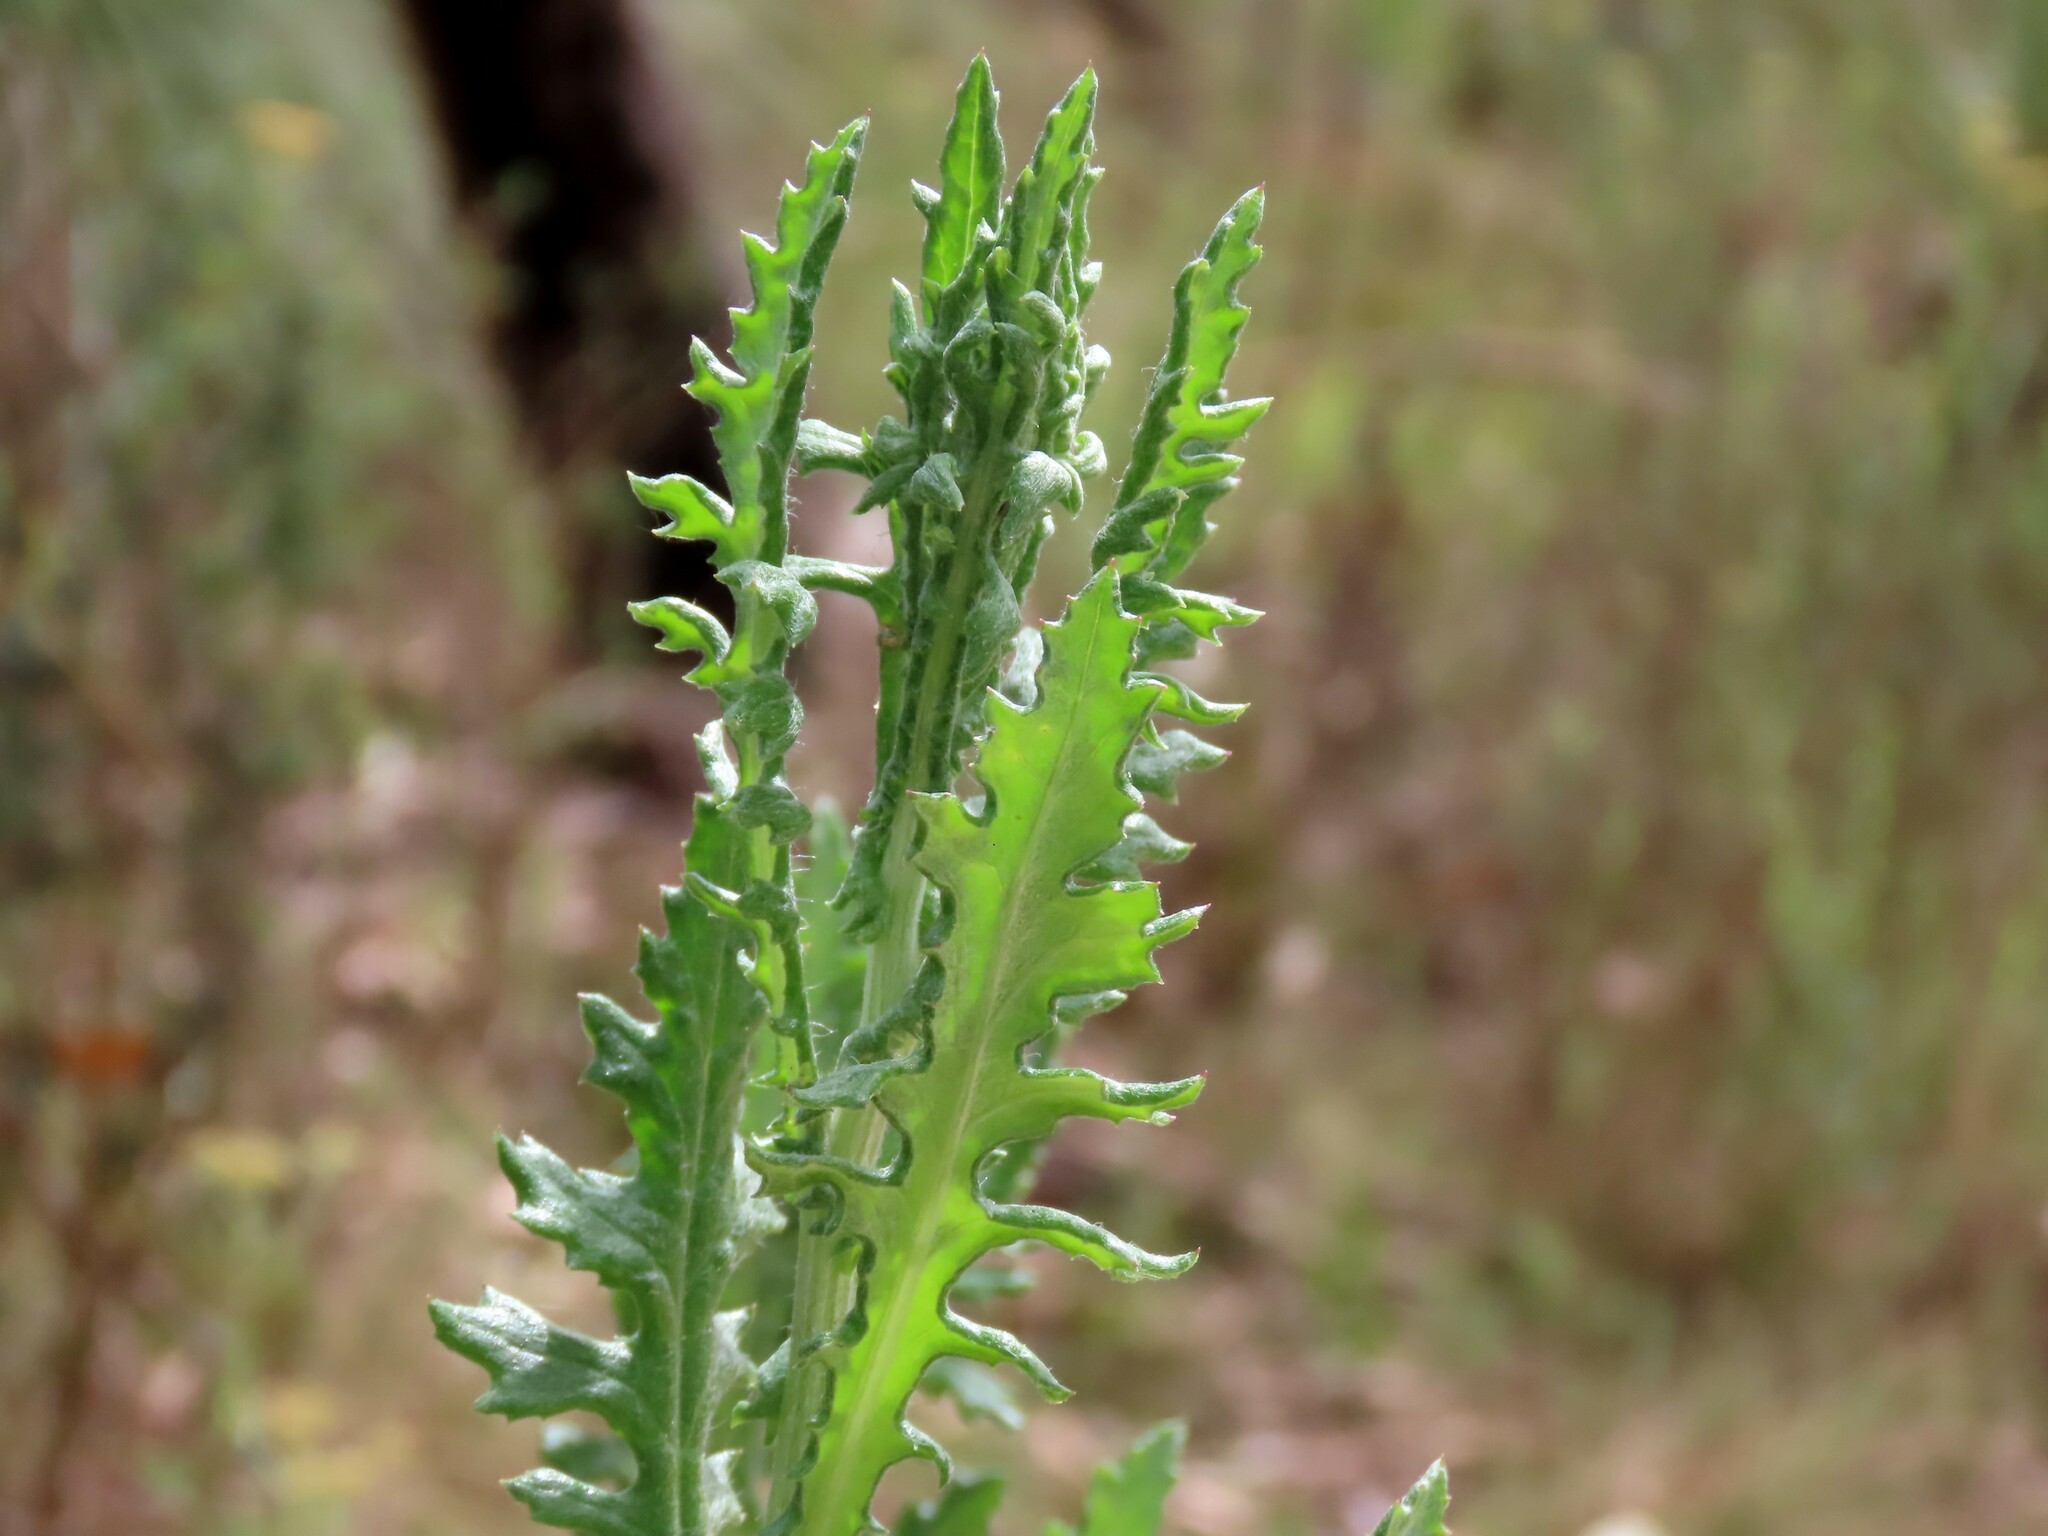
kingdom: Plantae
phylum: Tracheophyta
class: Magnoliopsida
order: Asterales
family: Asteraceae
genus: Senecio
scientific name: Senecio glomeratus
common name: Cutleaf burnweed
